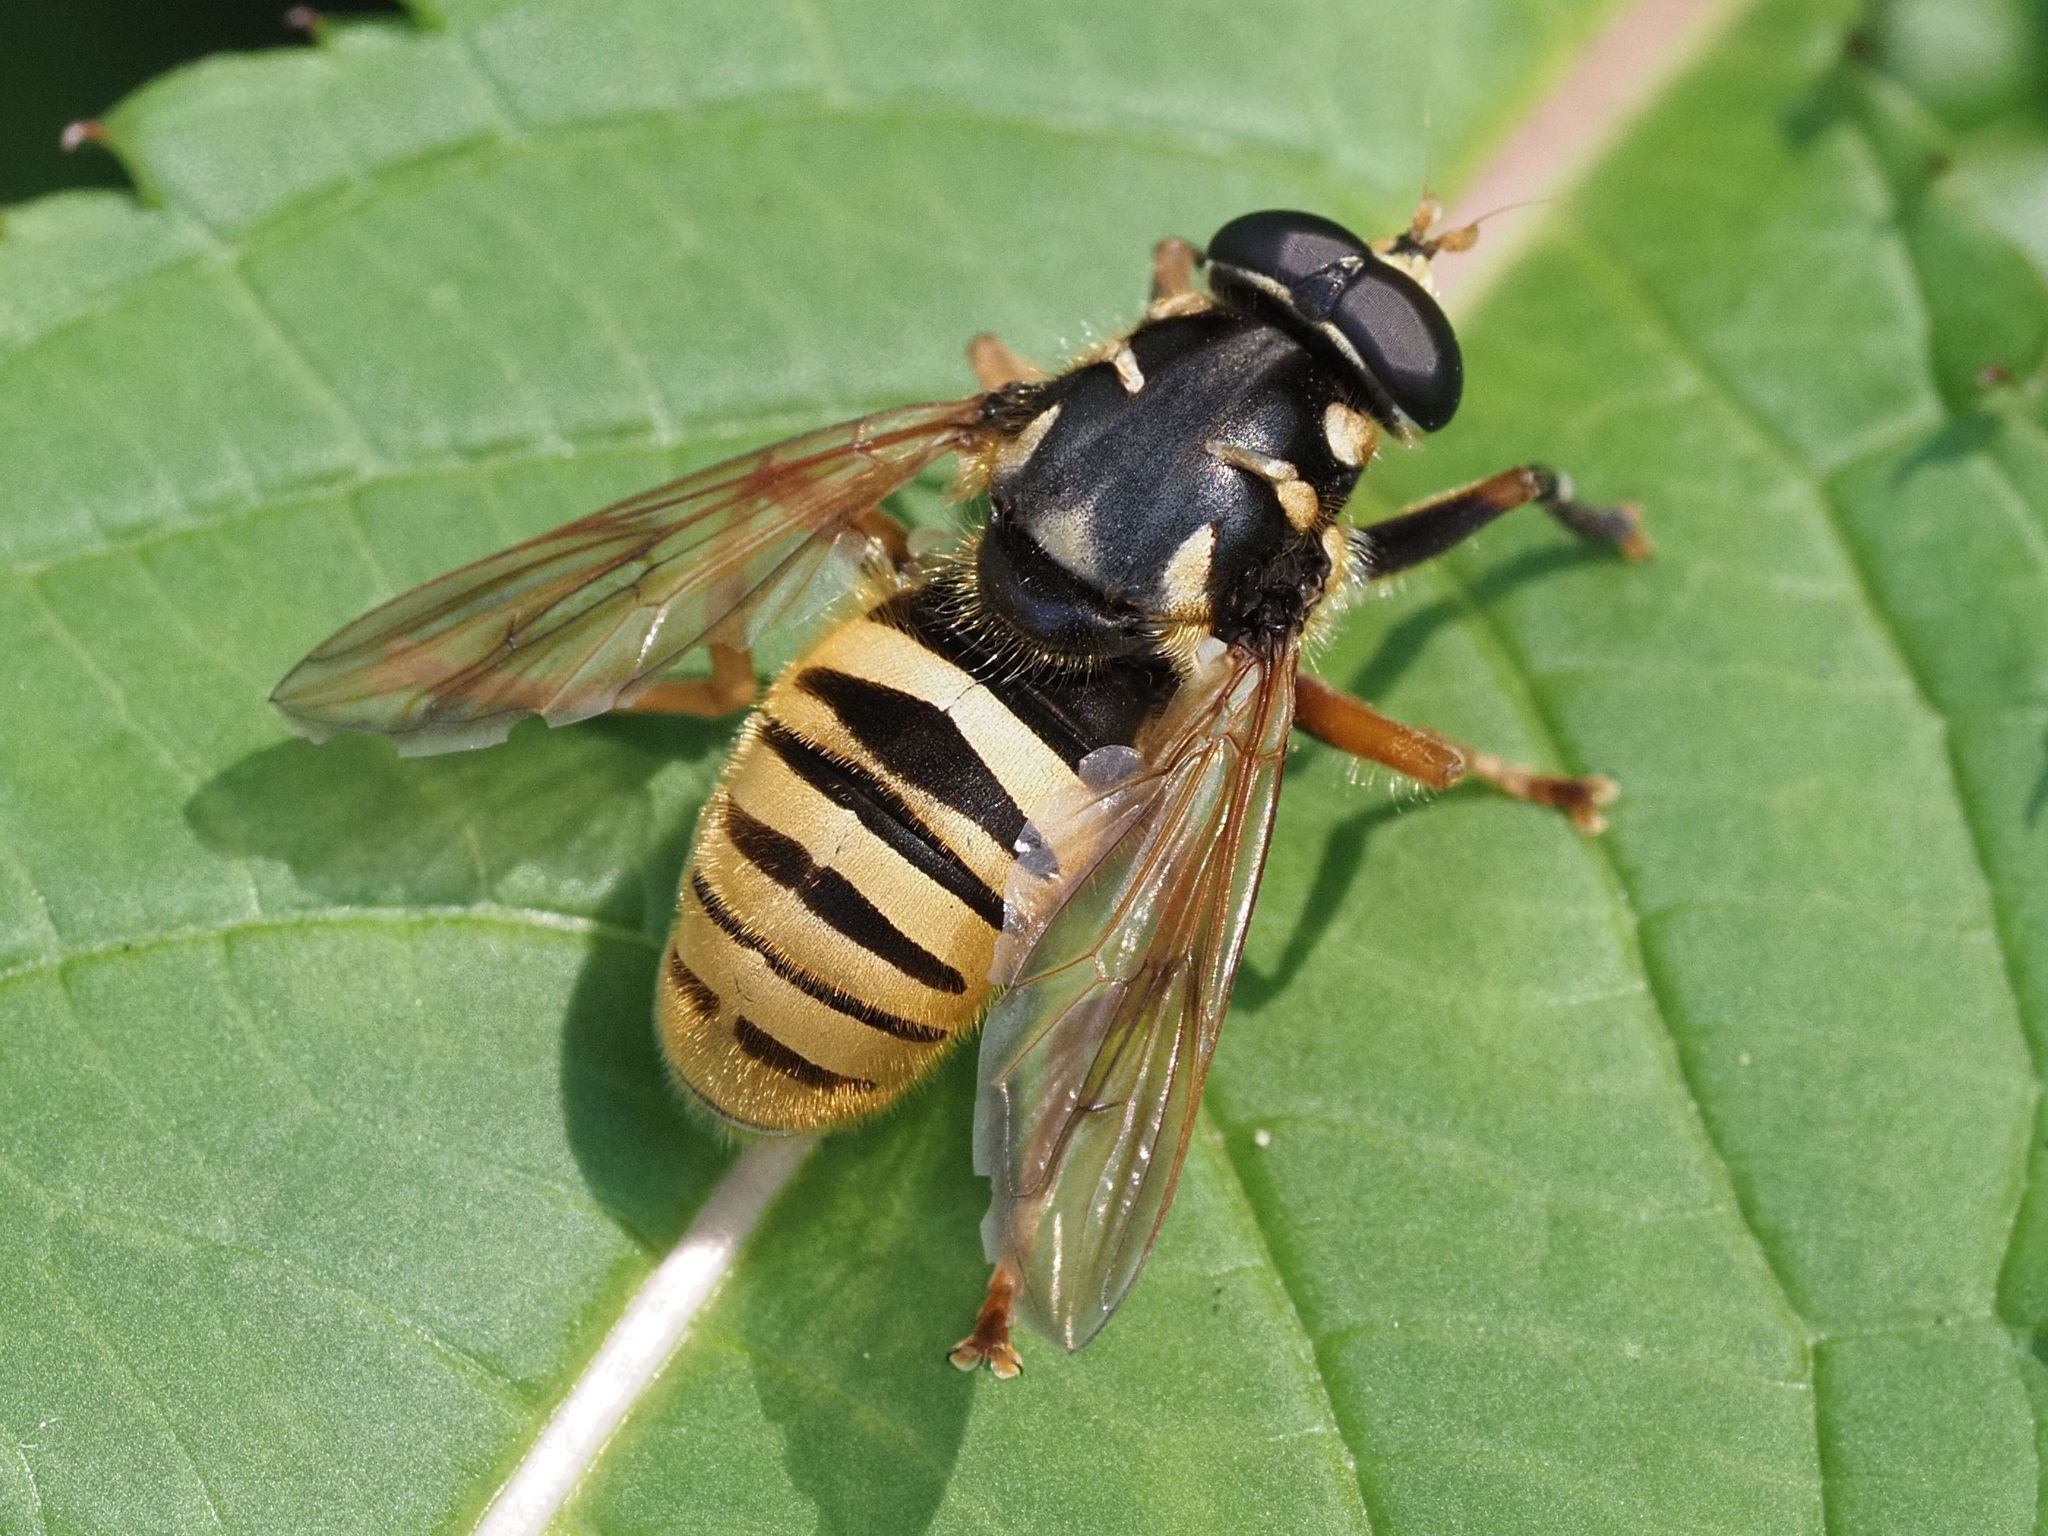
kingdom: Animalia
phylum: Arthropoda
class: Insecta
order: Diptera
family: Syrphidae
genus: Temnostoma
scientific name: Temnostoma vespiforme
